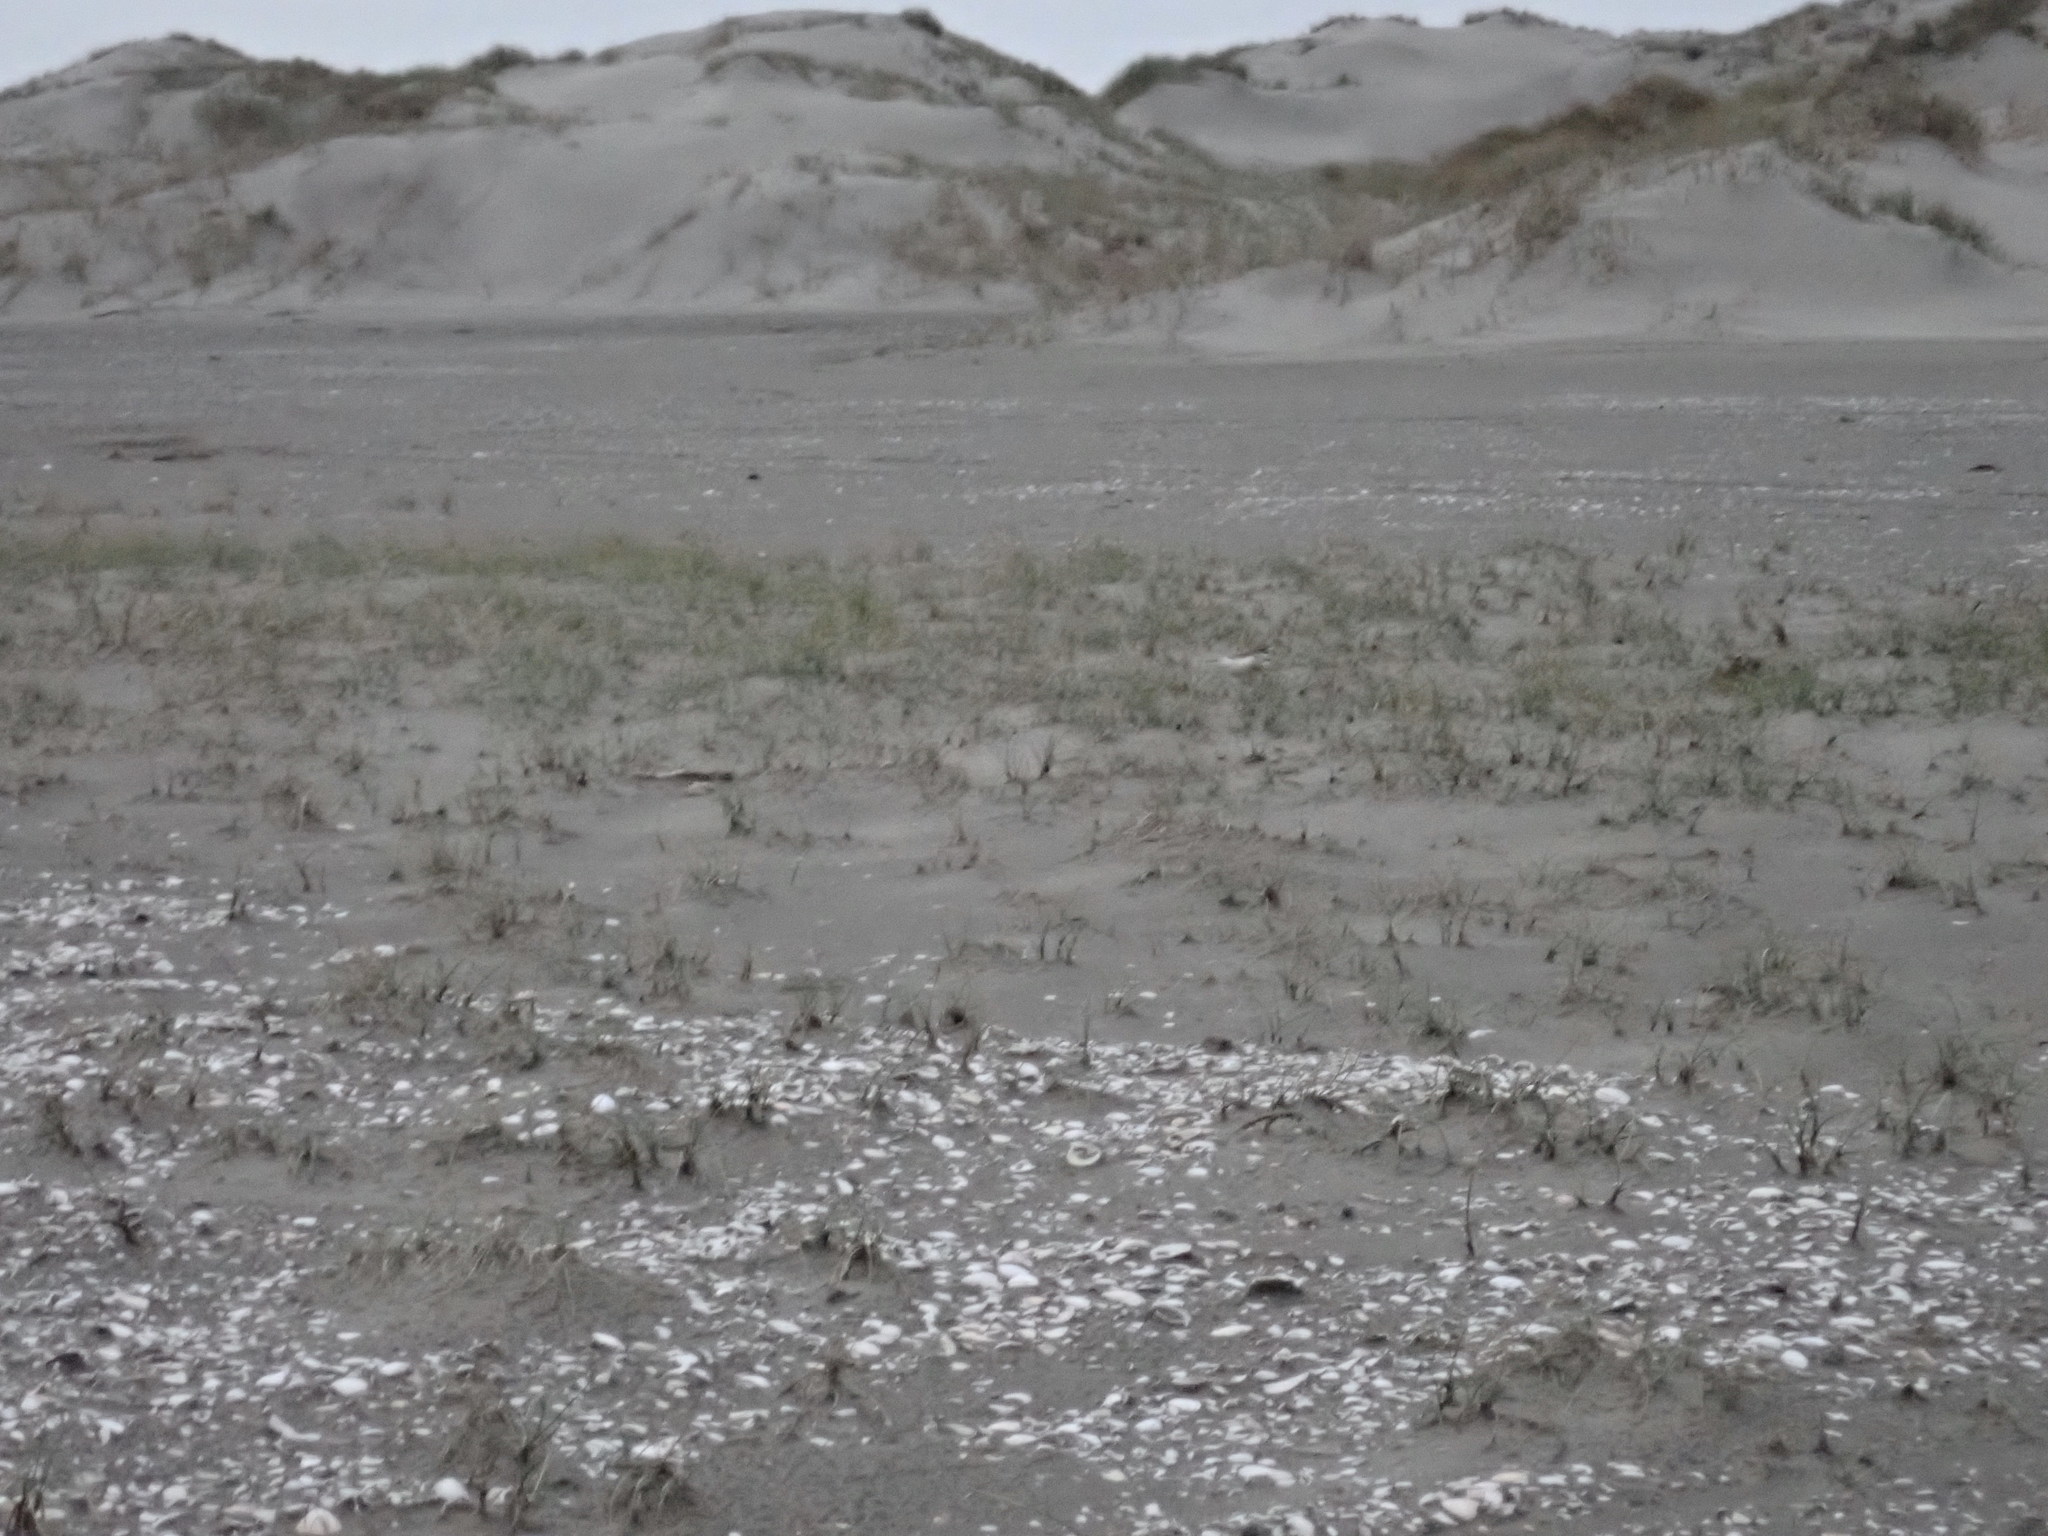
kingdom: Animalia
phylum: Chordata
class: Aves
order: Charadriiformes
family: Charadriidae
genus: Anarhynchus
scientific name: Anarhynchus
